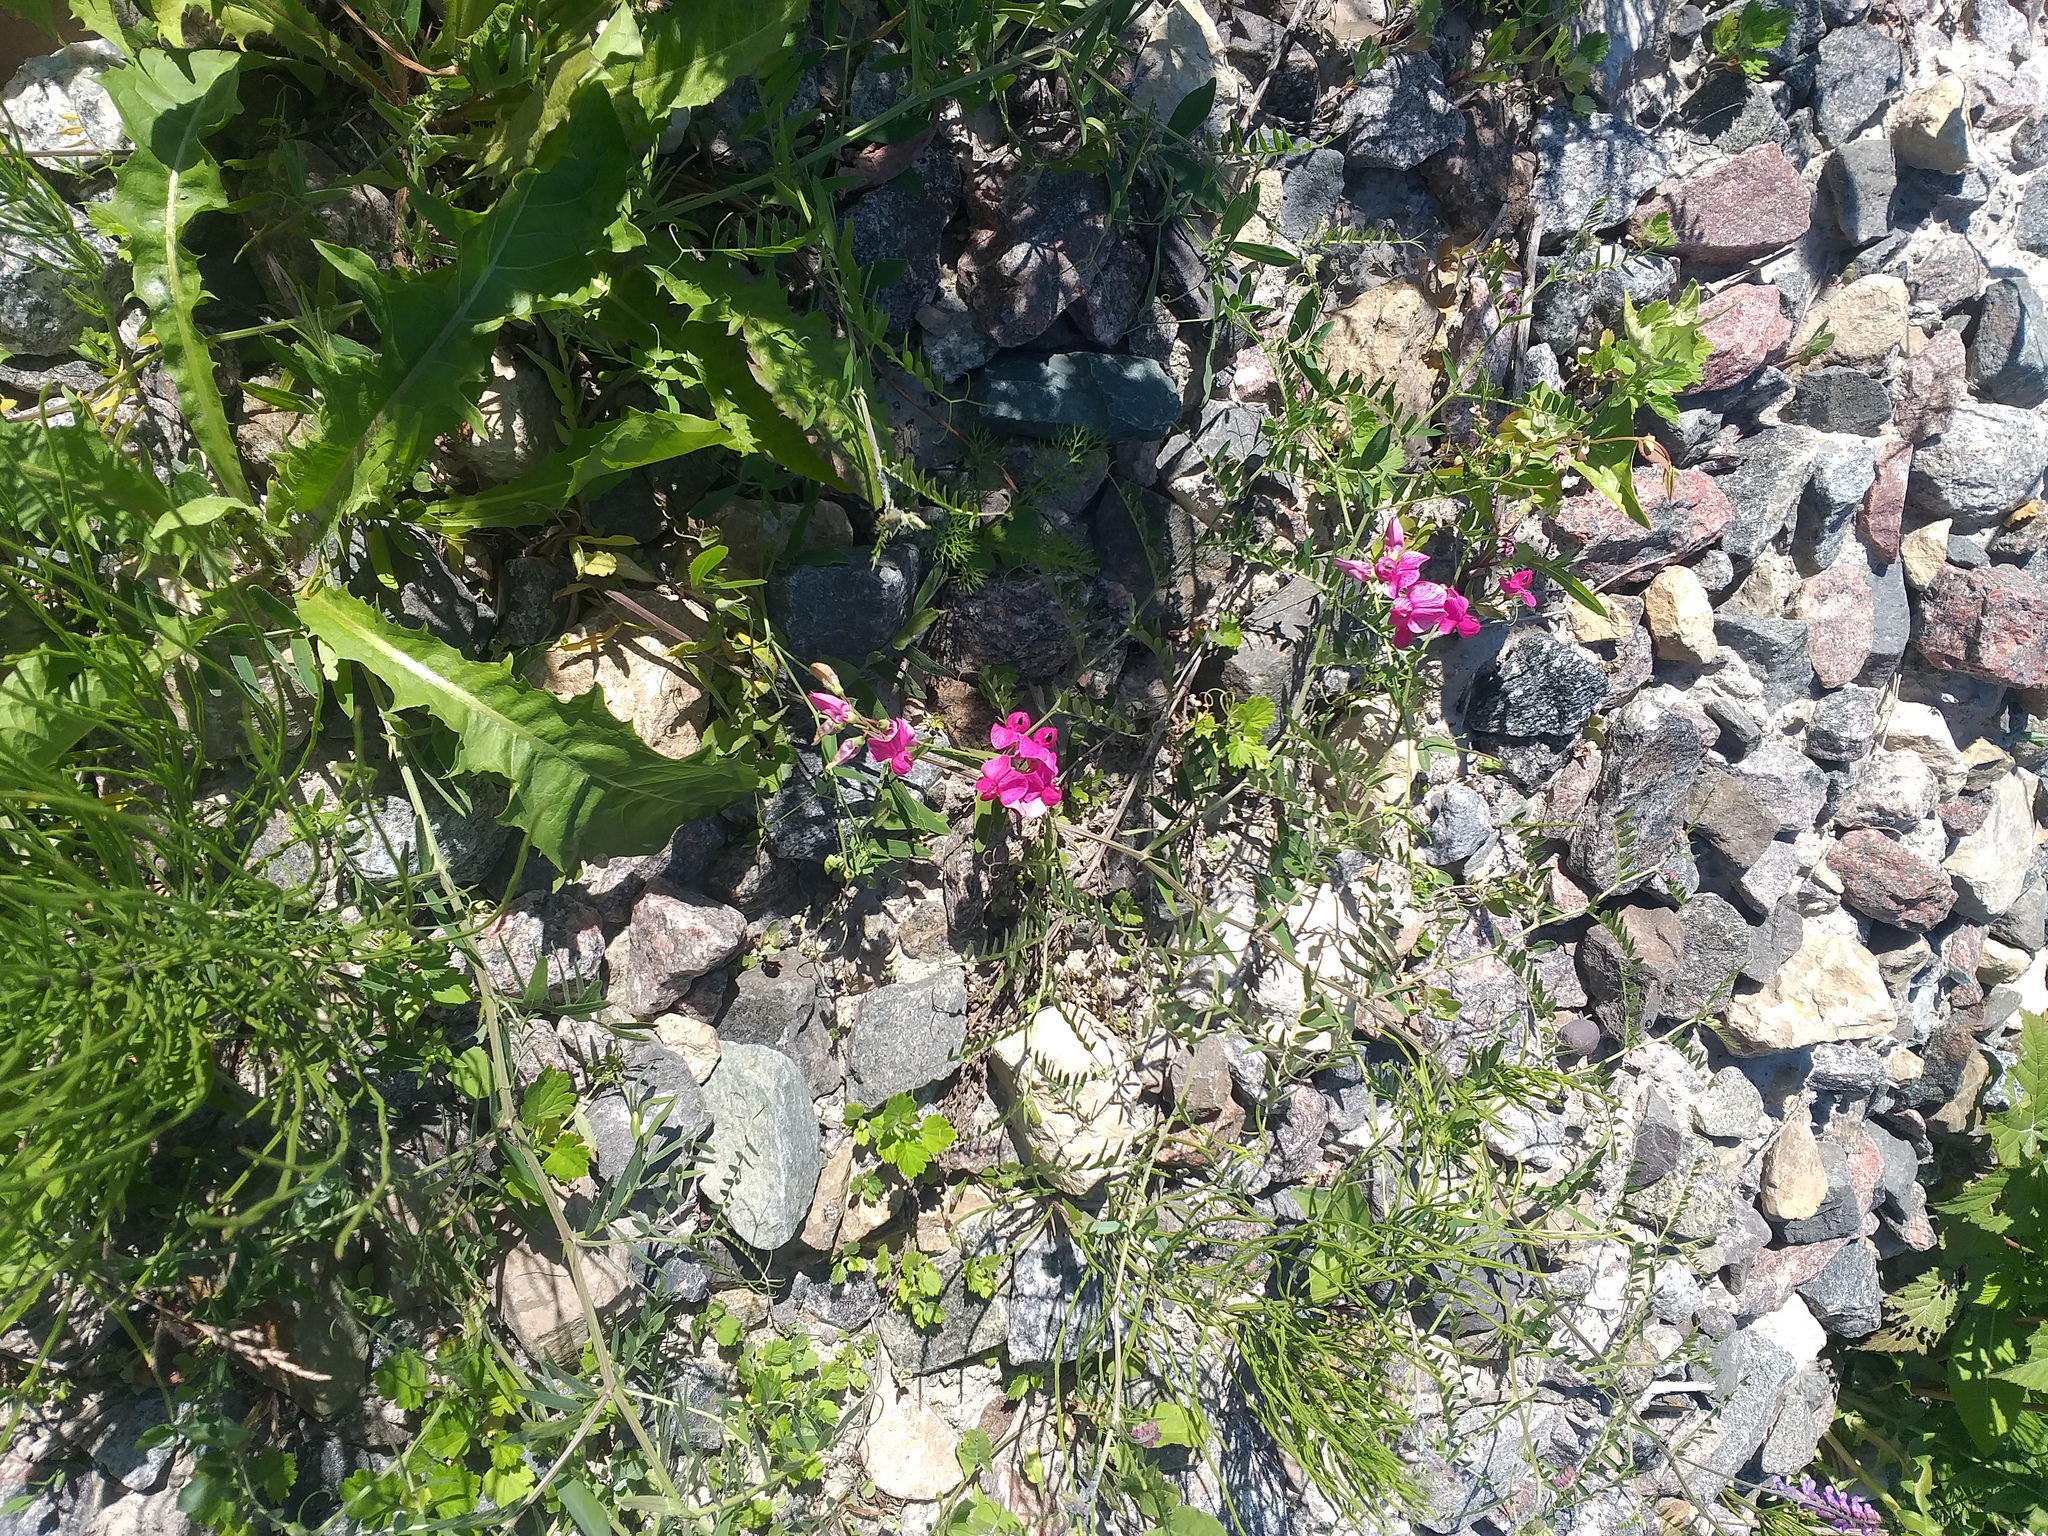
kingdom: Plantae
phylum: Tracheophyta
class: Magnoliopsida
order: Fabales
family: Fabaceae
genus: Lathyrus
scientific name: Lathyrus tuberosus
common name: Tuberous pea
